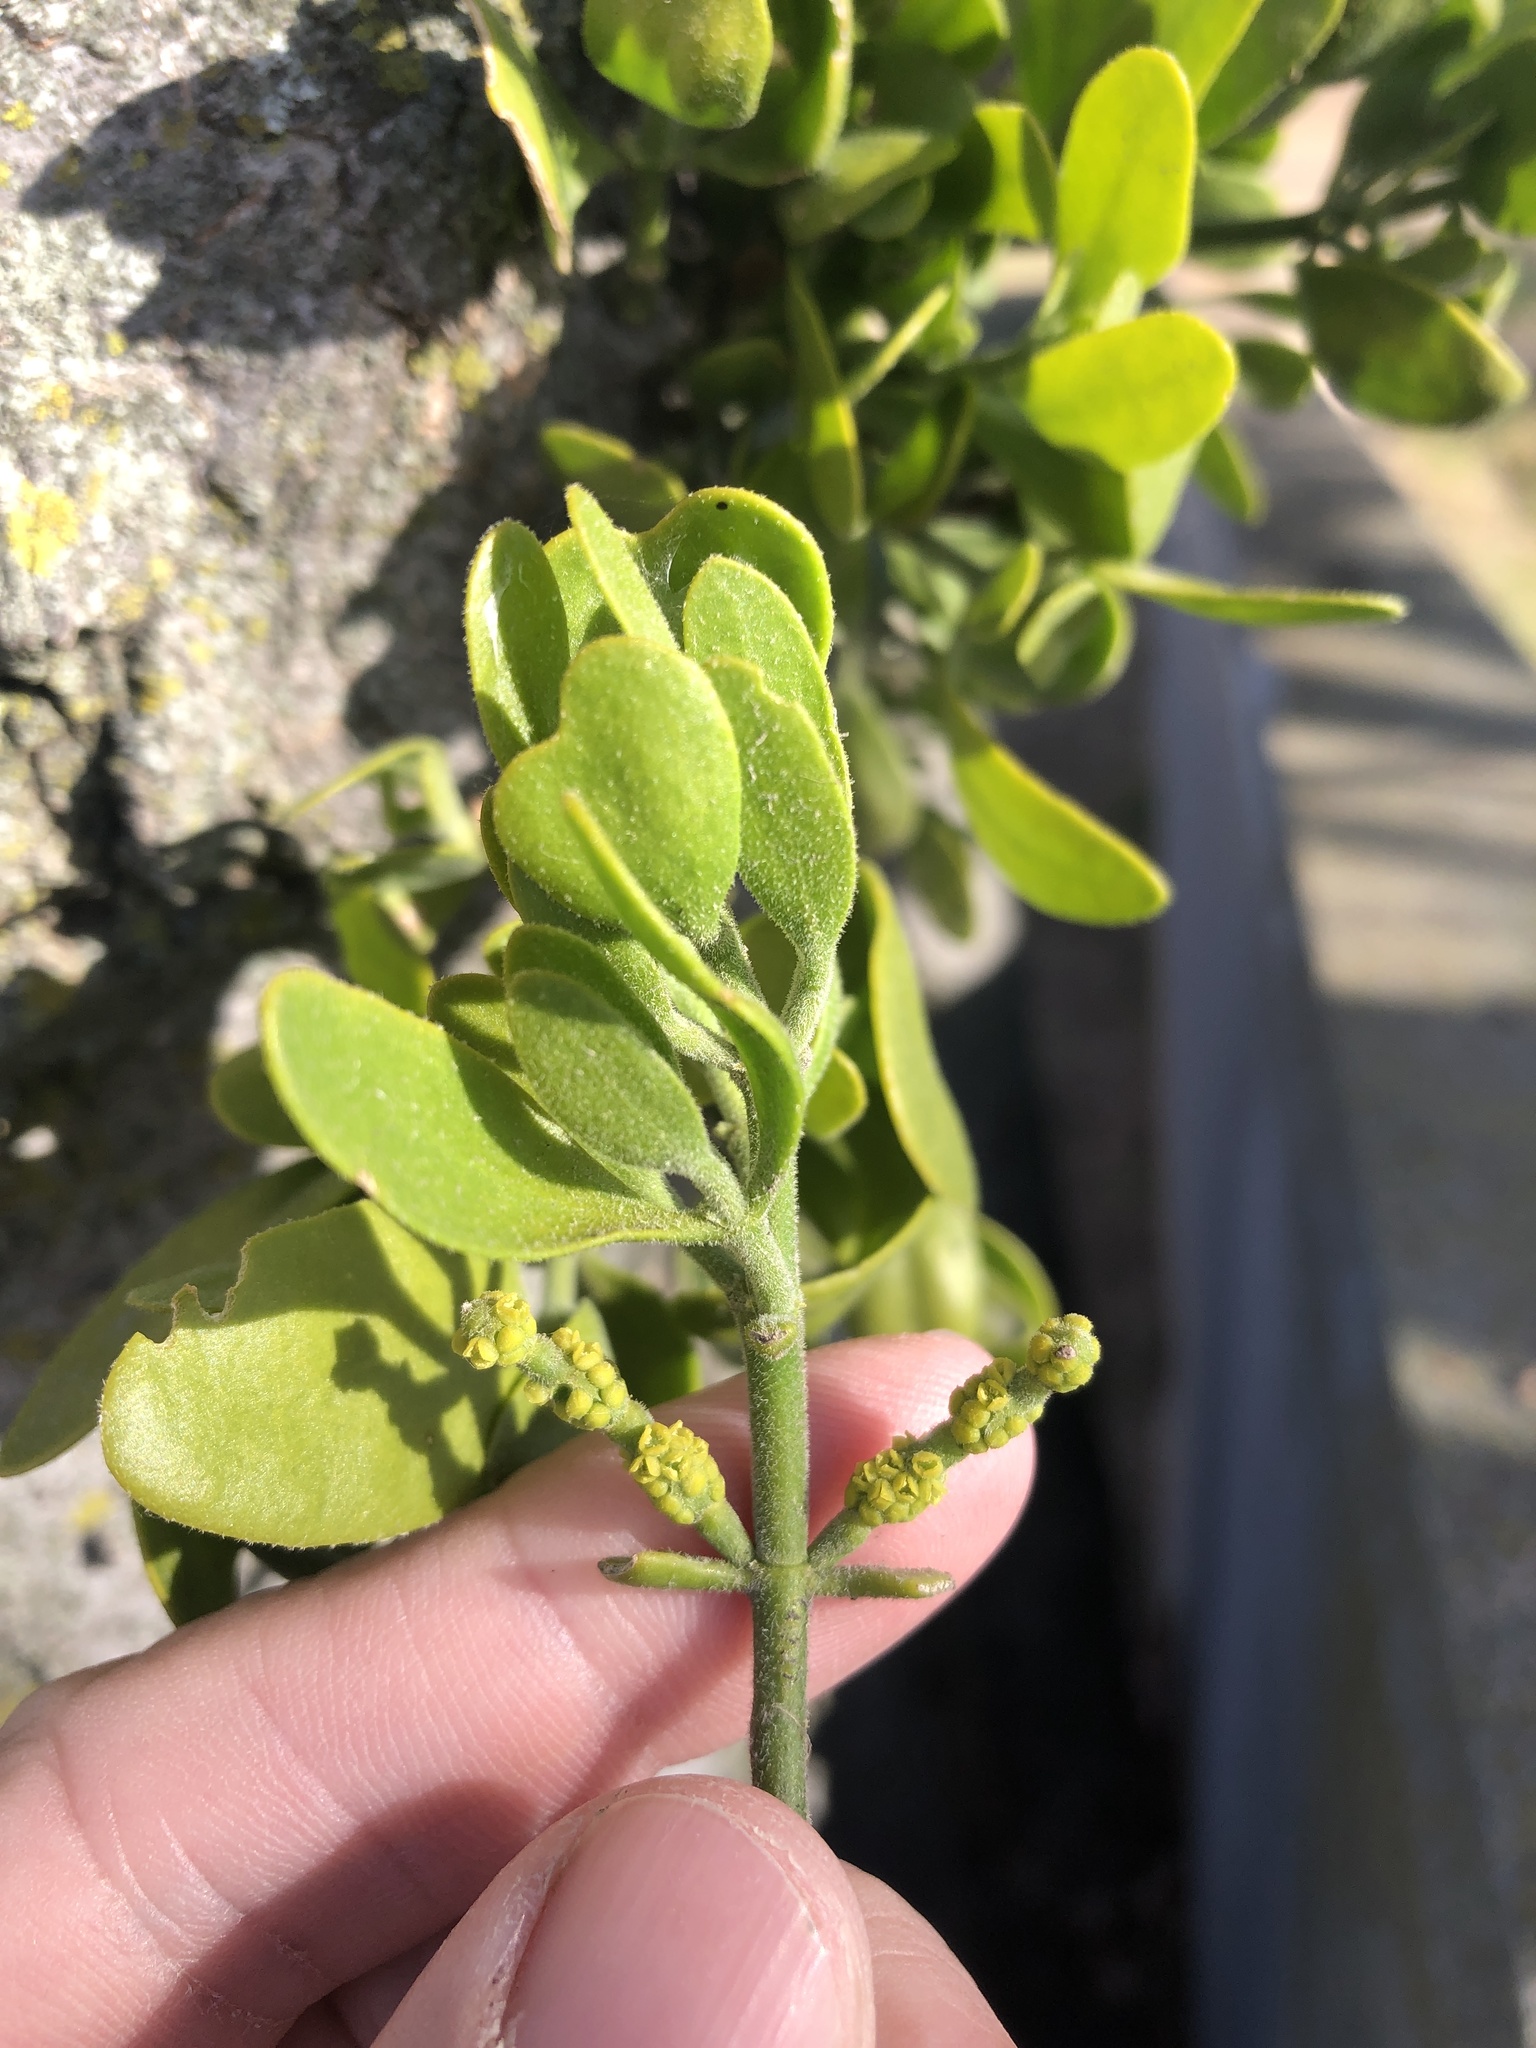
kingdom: Plantae
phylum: Tracheophyta
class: Magnoliopsida
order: Santalales
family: Viscaceae
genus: Phoradendron
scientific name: Phoradendron leucarpum
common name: Pacific mistletoe
